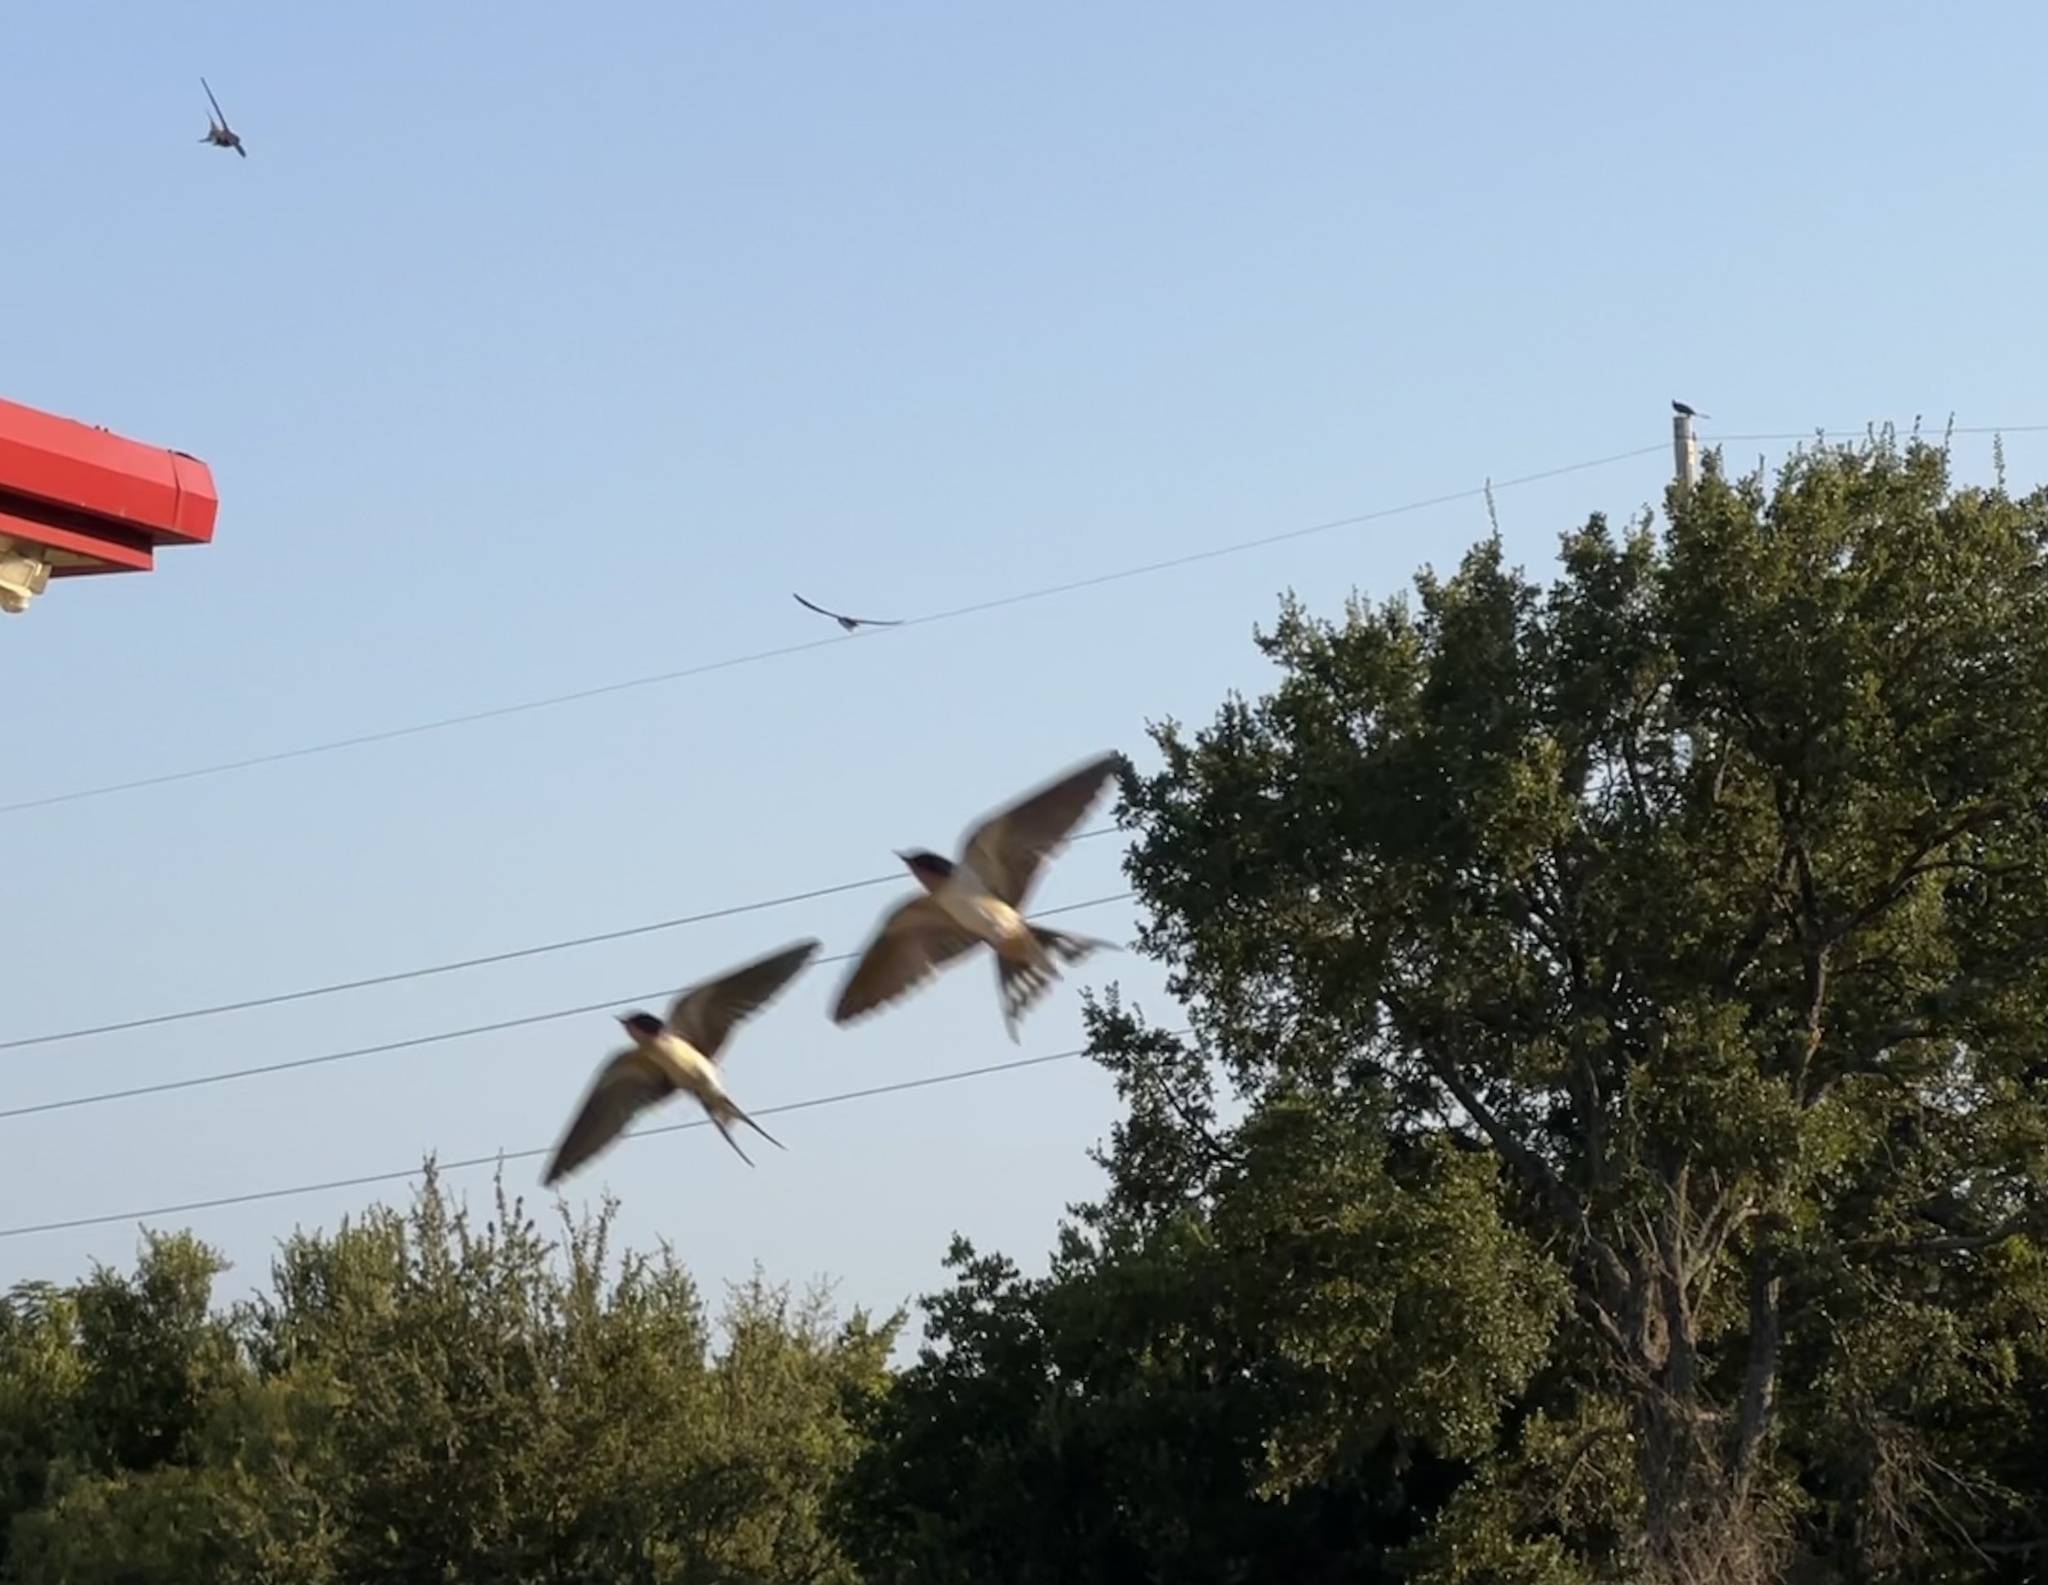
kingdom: Animalia
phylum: Chordata
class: Aves
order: Passeriformes
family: Hirundinidae
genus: Hirundo
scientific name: Hirundo rustica
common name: Barn swallow
